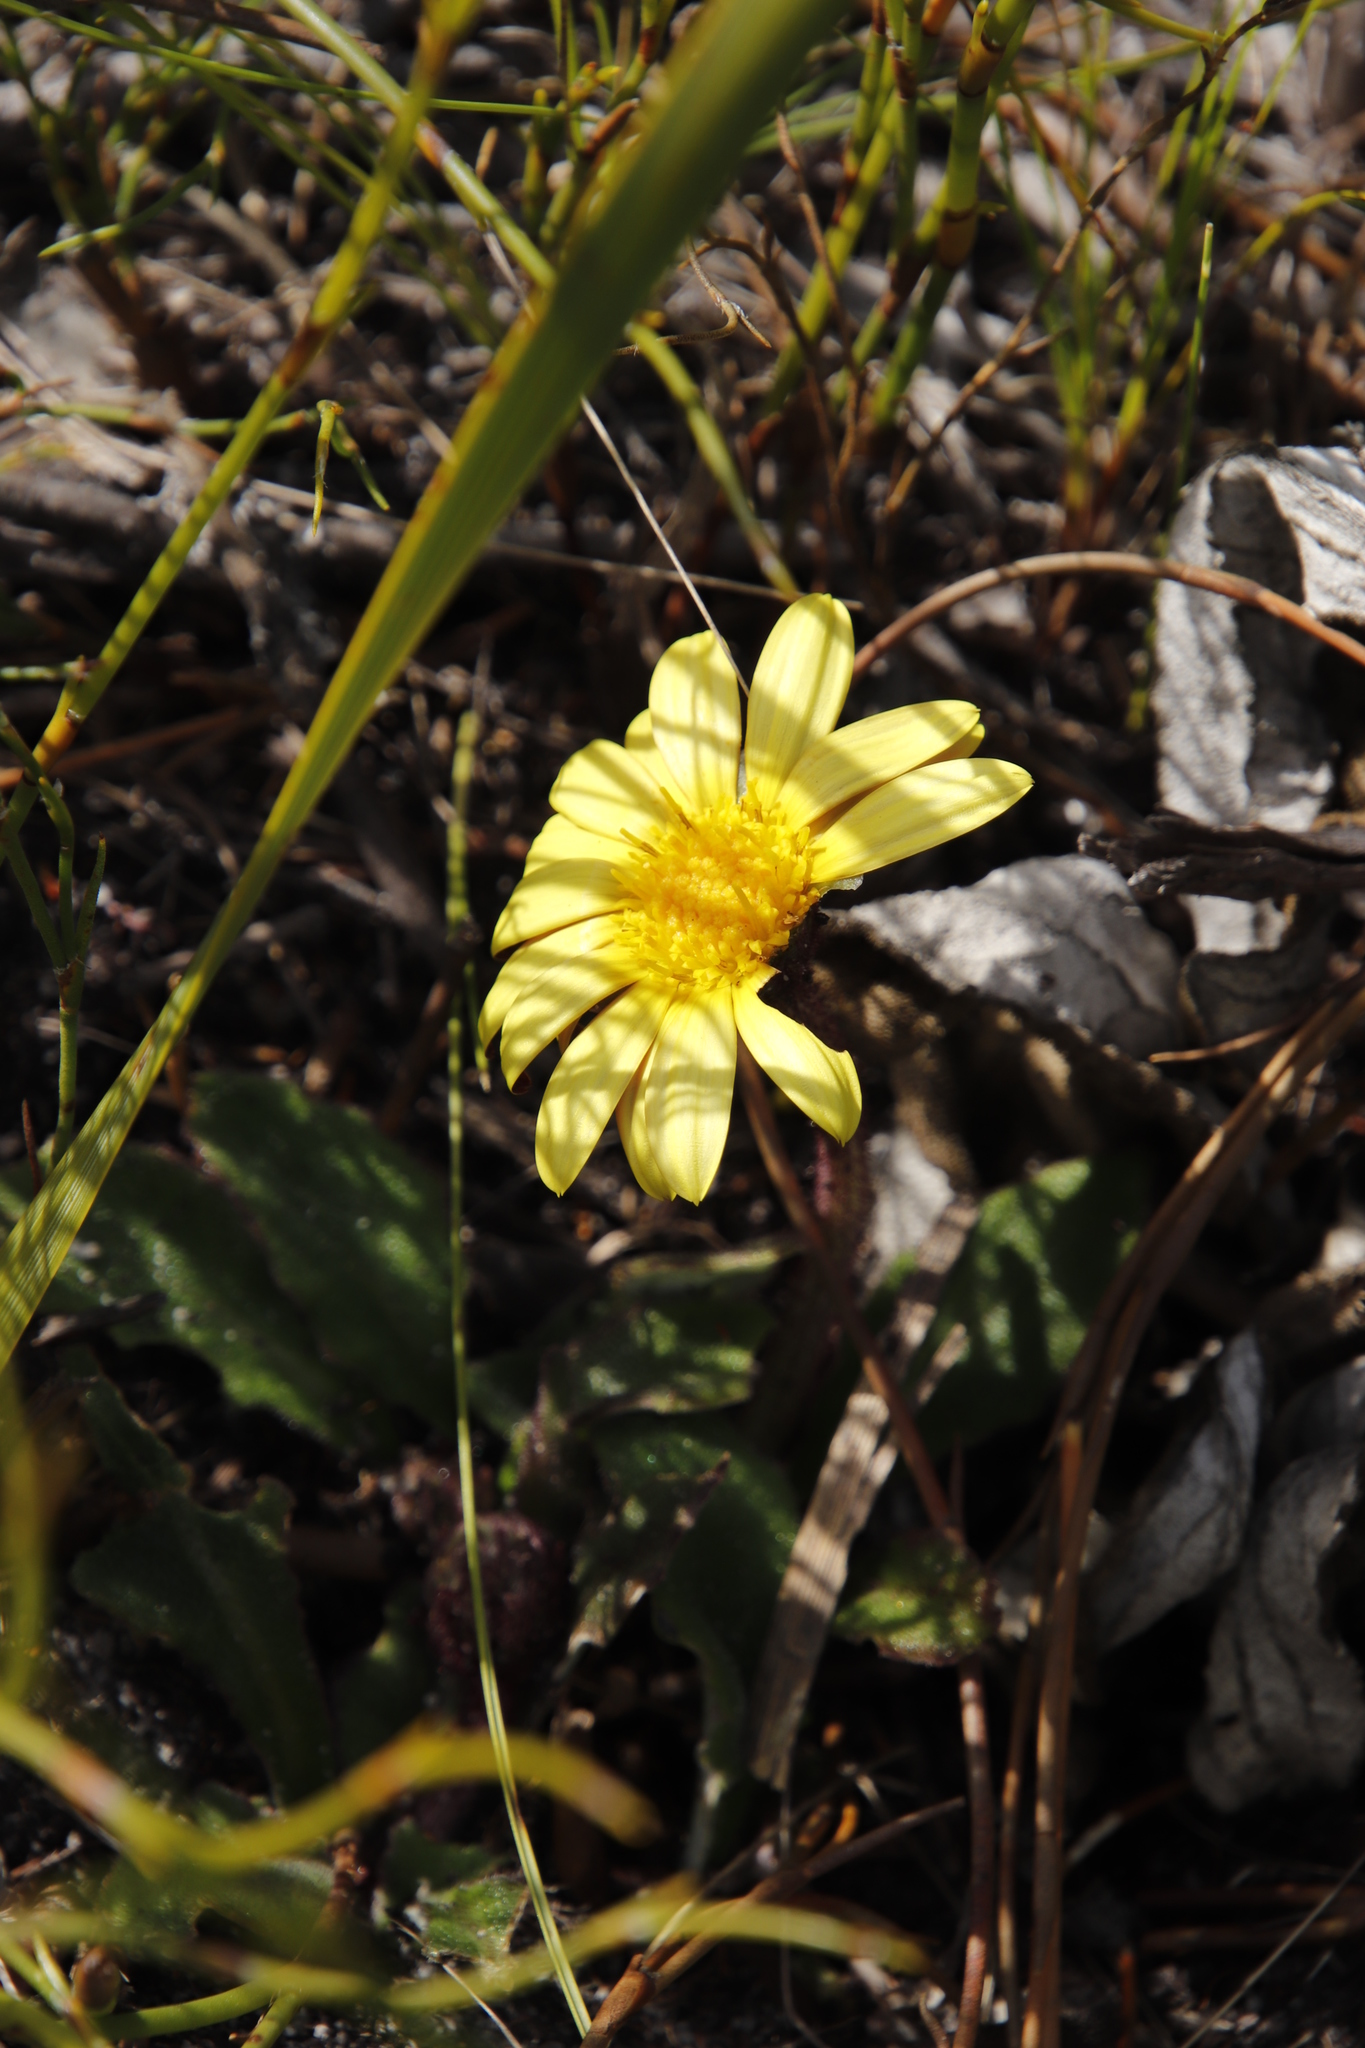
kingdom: Plantae
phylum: Tracheophyta
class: Magnoliopsida
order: Asterales
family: Asteraceae
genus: Haplocarpha
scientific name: Haplocarpha lanata
